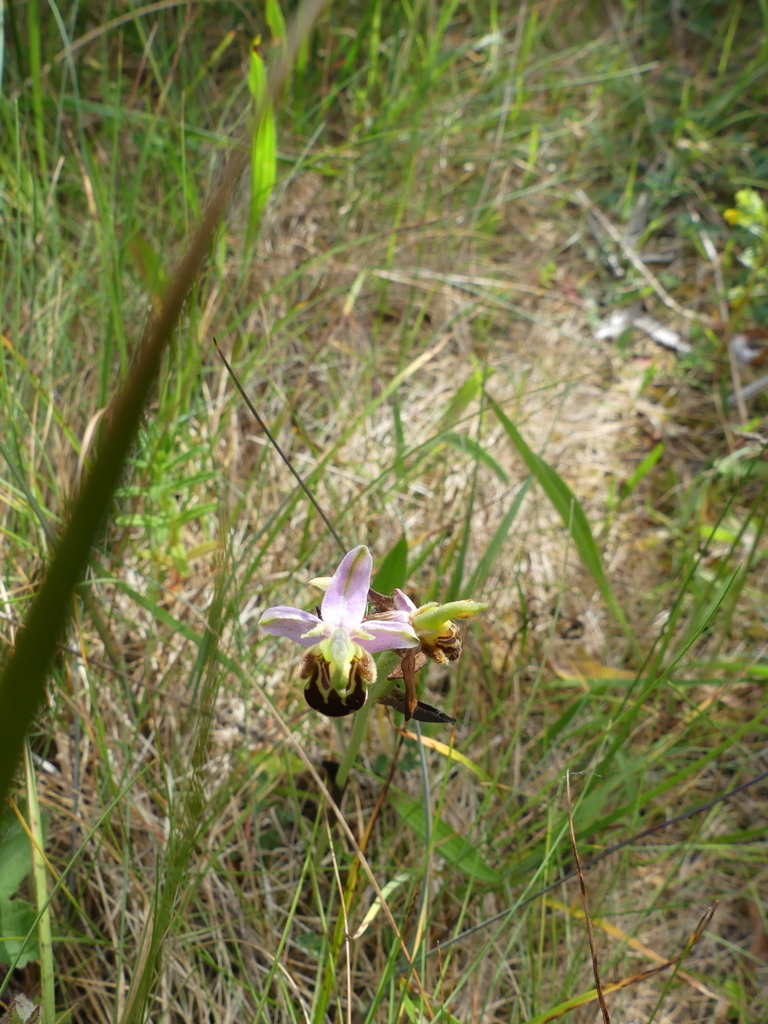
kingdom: Plantae
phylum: Tracheophyta
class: Liliopsida
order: Asparagales
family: Orchidaceae
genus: Ophrys
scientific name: Ophrys apifera
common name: Bee orchid
